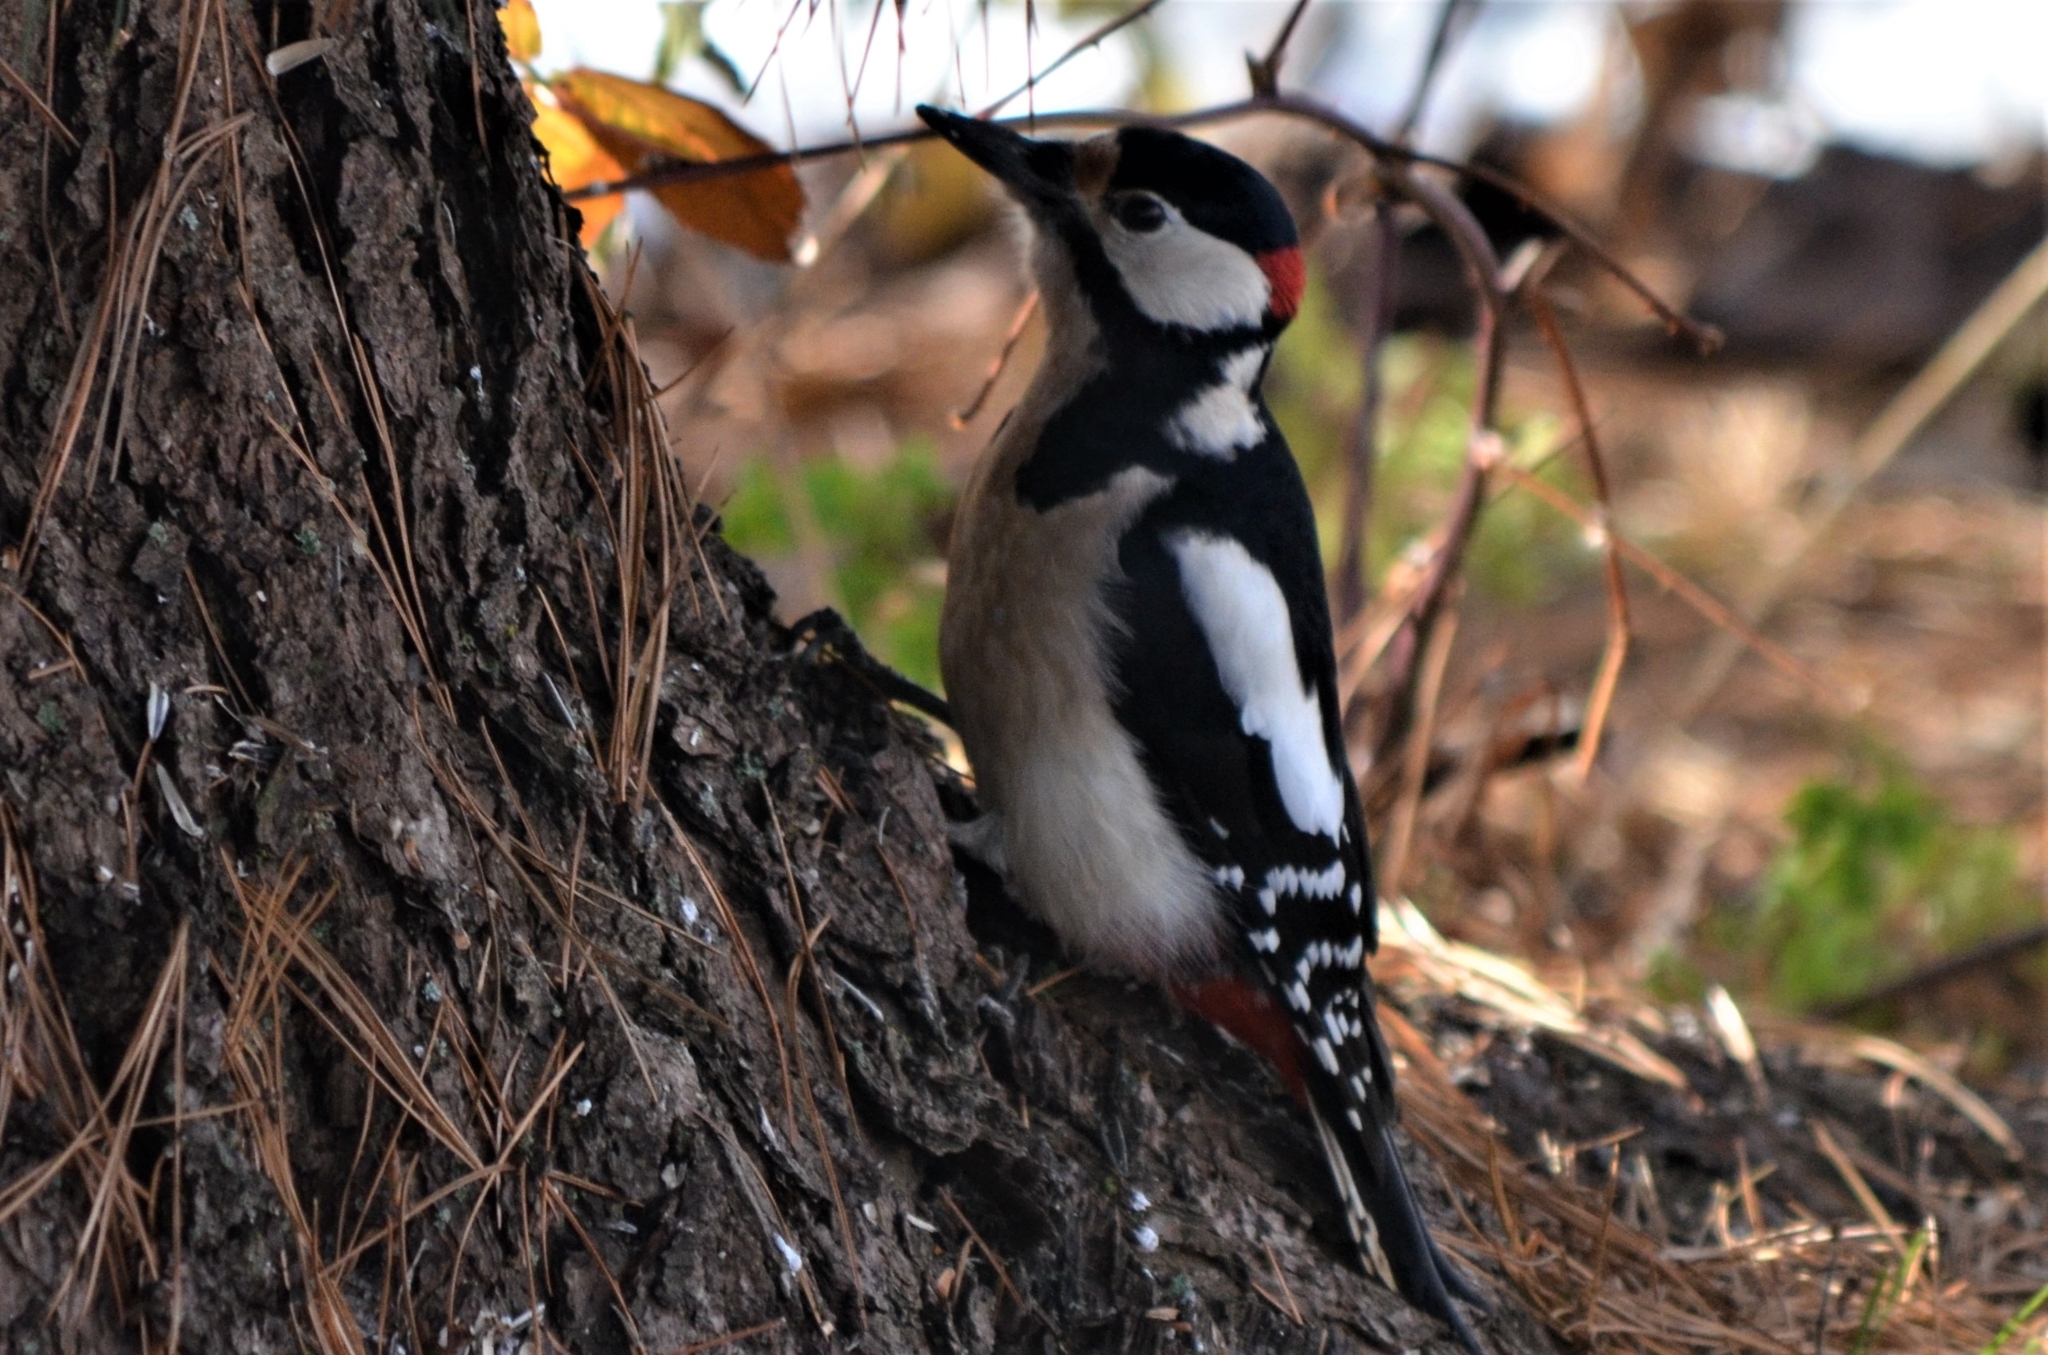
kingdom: Animalia
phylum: Chordata
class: Aves
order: Piciformes
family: Picidae
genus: Dendrocopos
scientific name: Dendrocopos major
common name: Great spotted woodpecker
